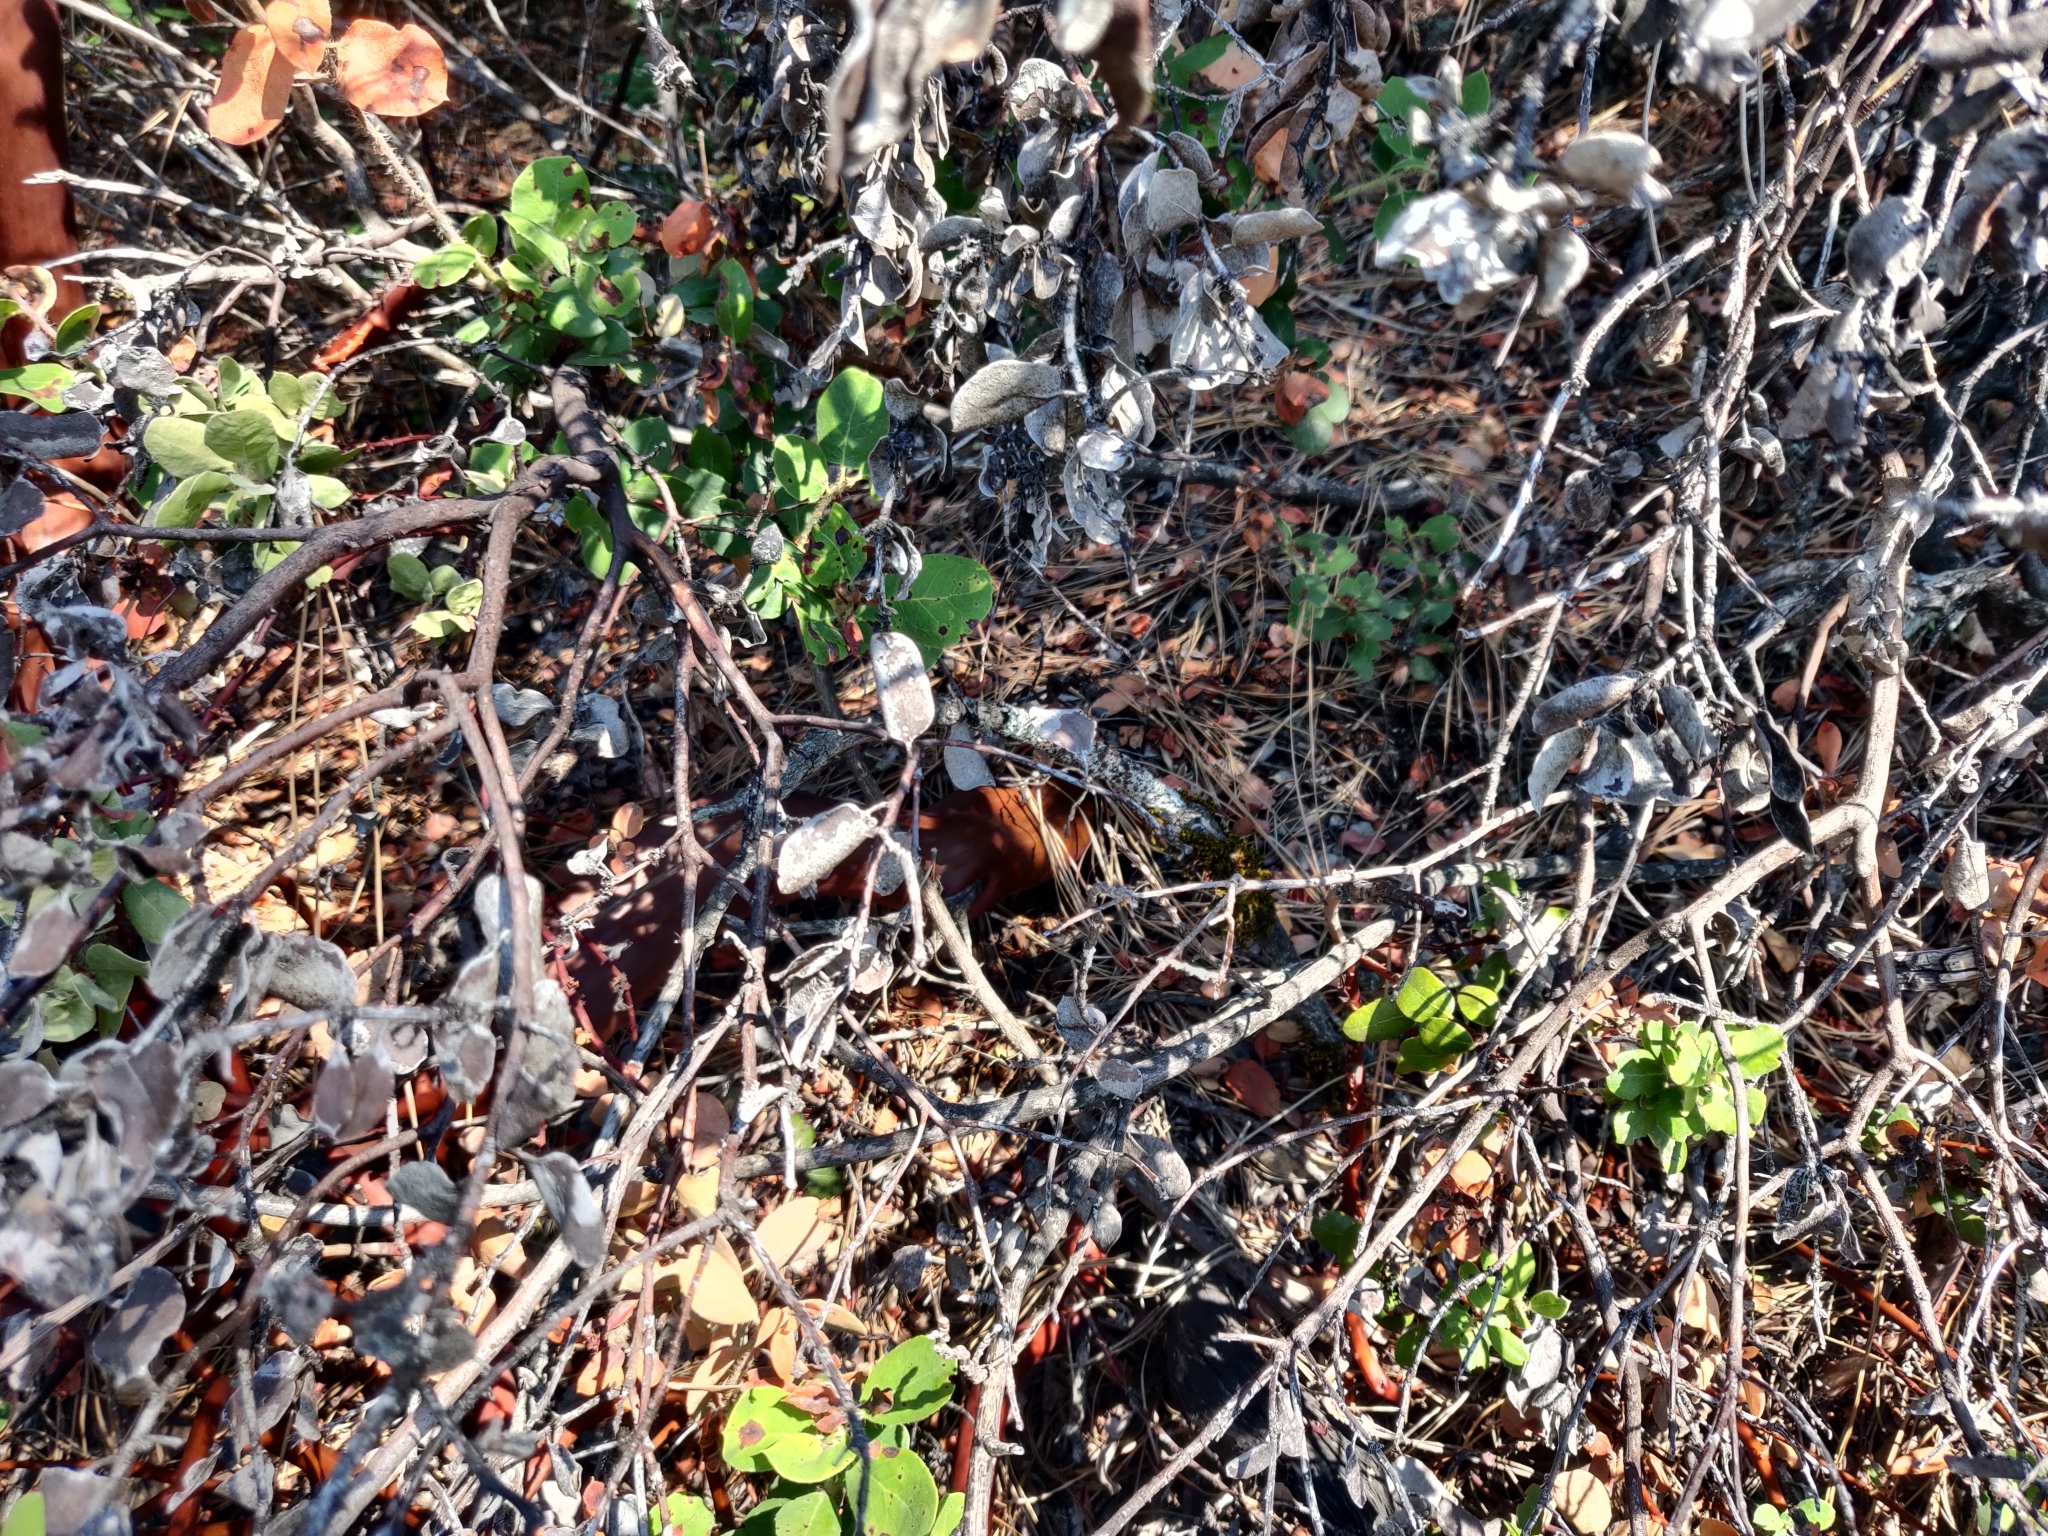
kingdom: Plantae
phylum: Tracheophyta
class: Magnoliopsida
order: Ericales
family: Ericaceae
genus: Arctostaphylos
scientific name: Arctostaphylos crustacea
